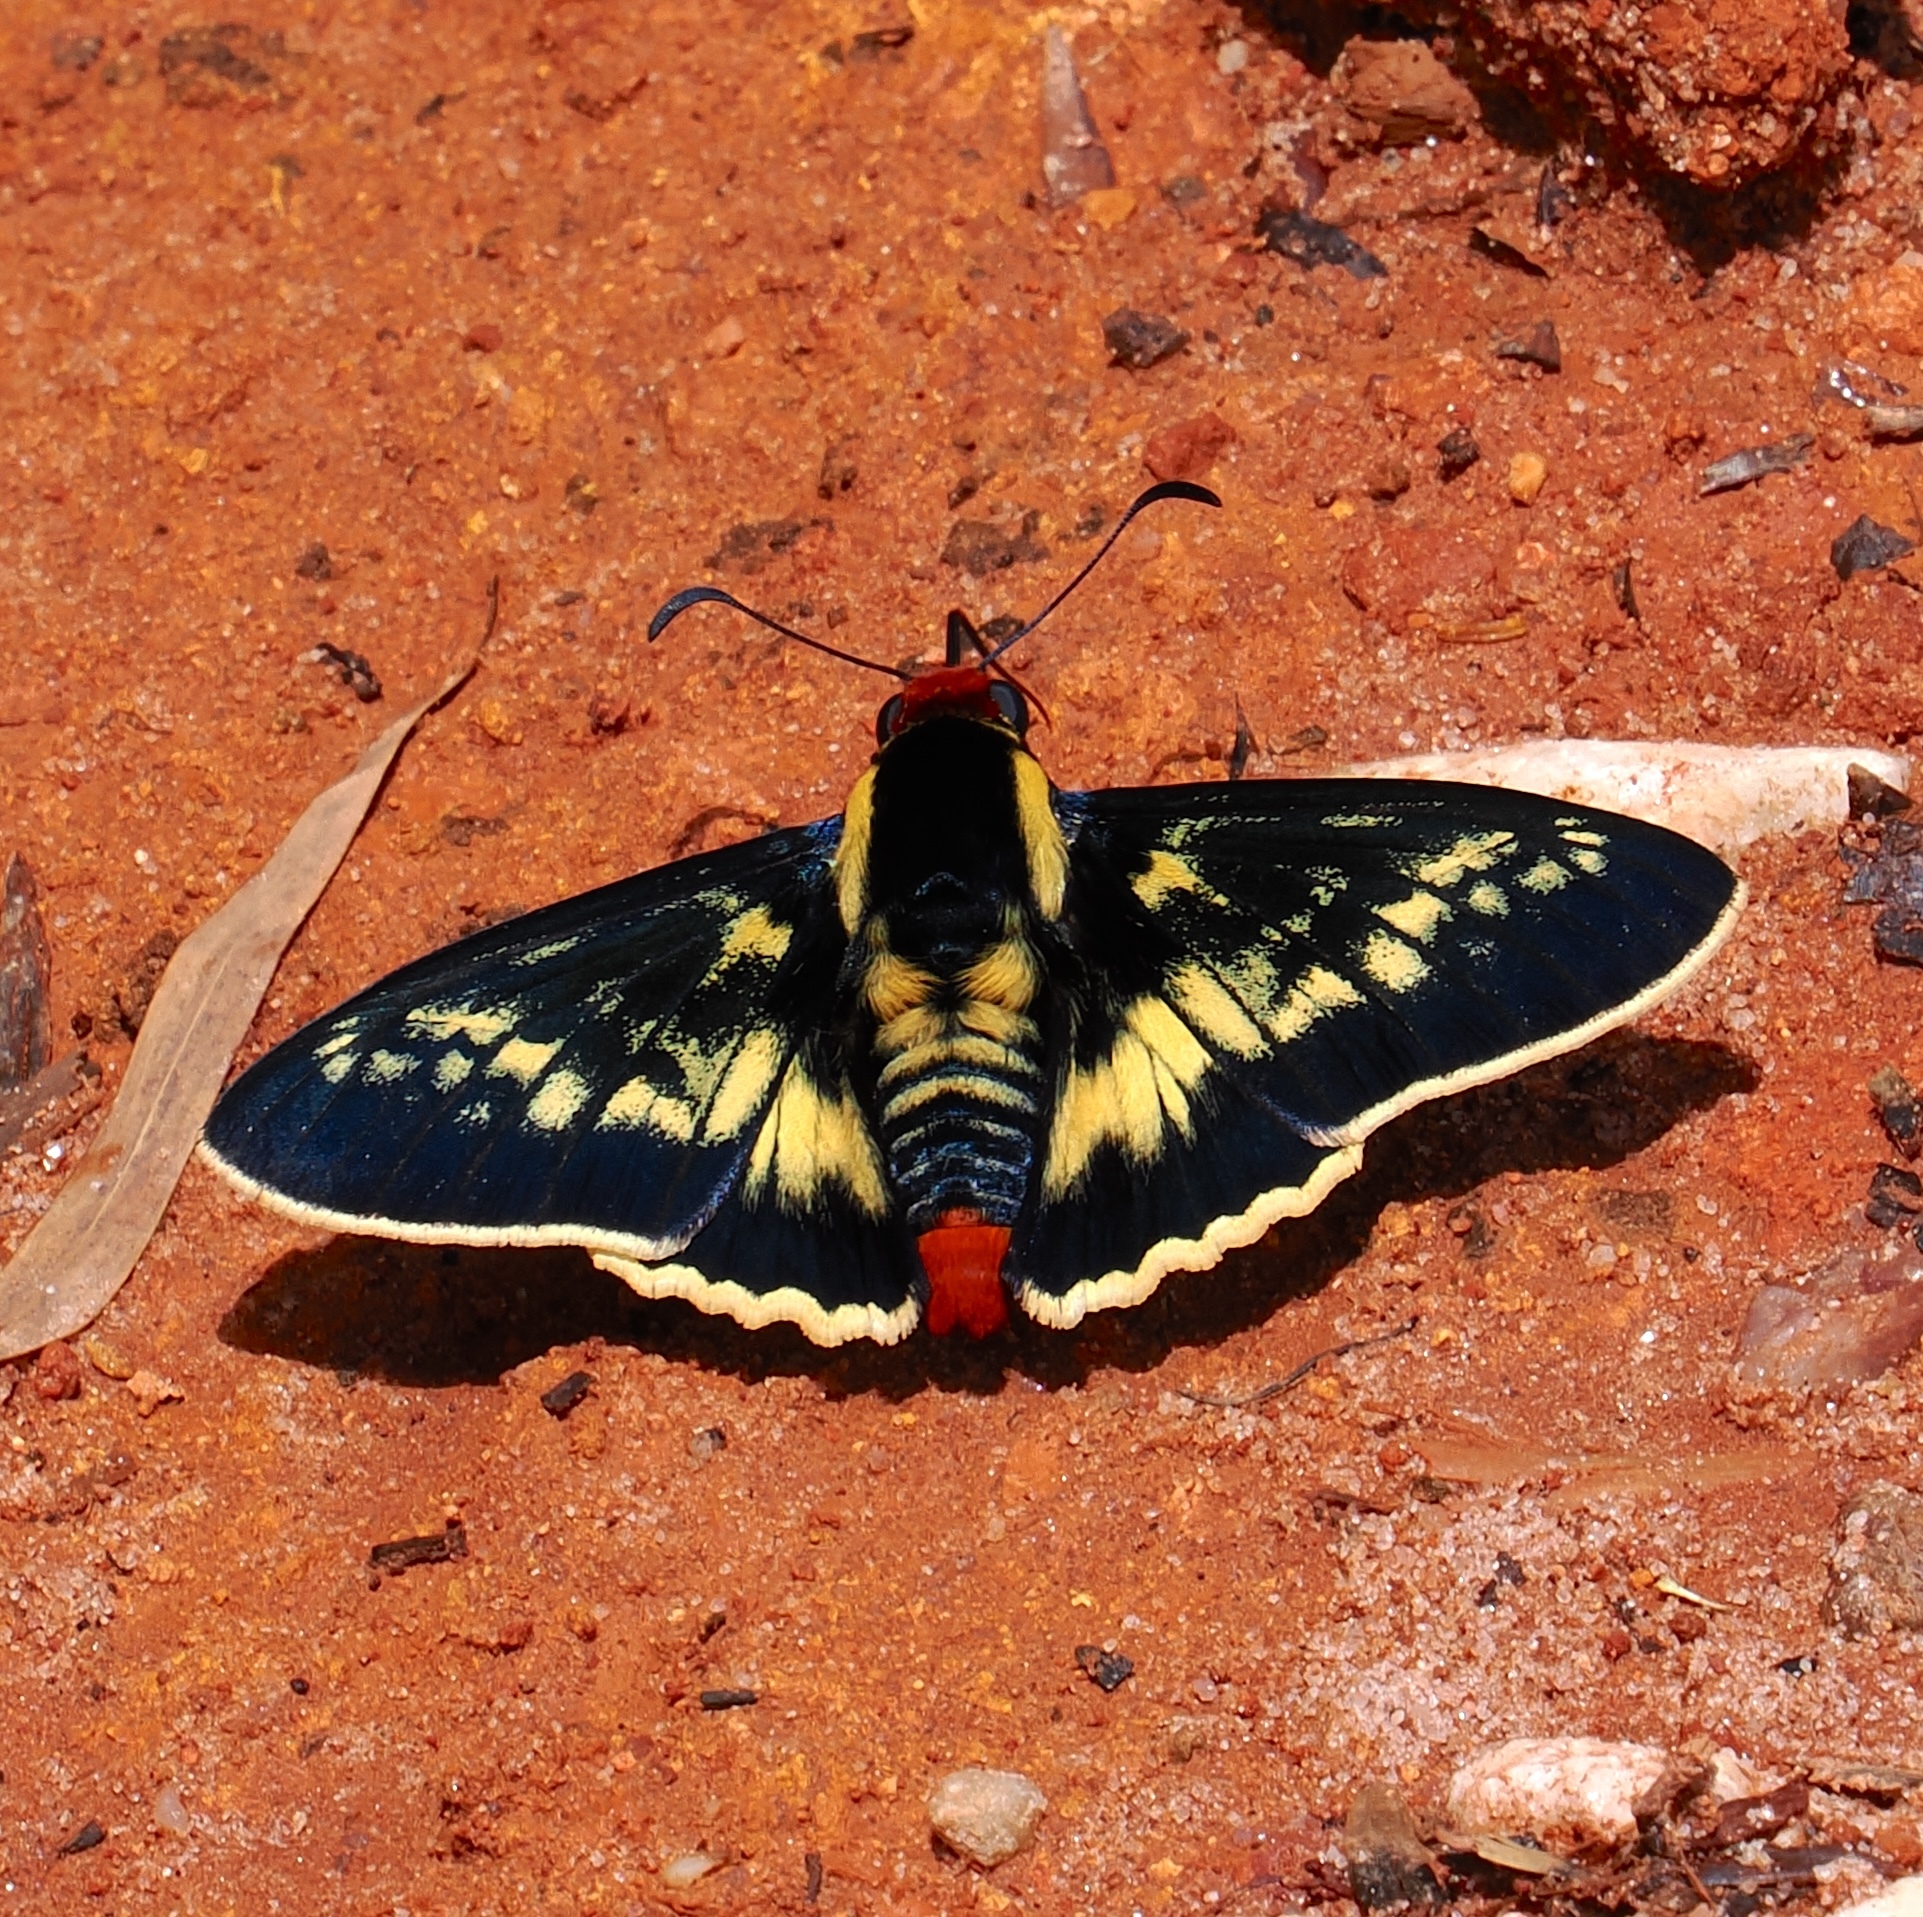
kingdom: Animalia
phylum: Arthropoda
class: Insecta
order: Lepidoptera
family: Hesperiidae
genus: Elbella
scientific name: Elbella
